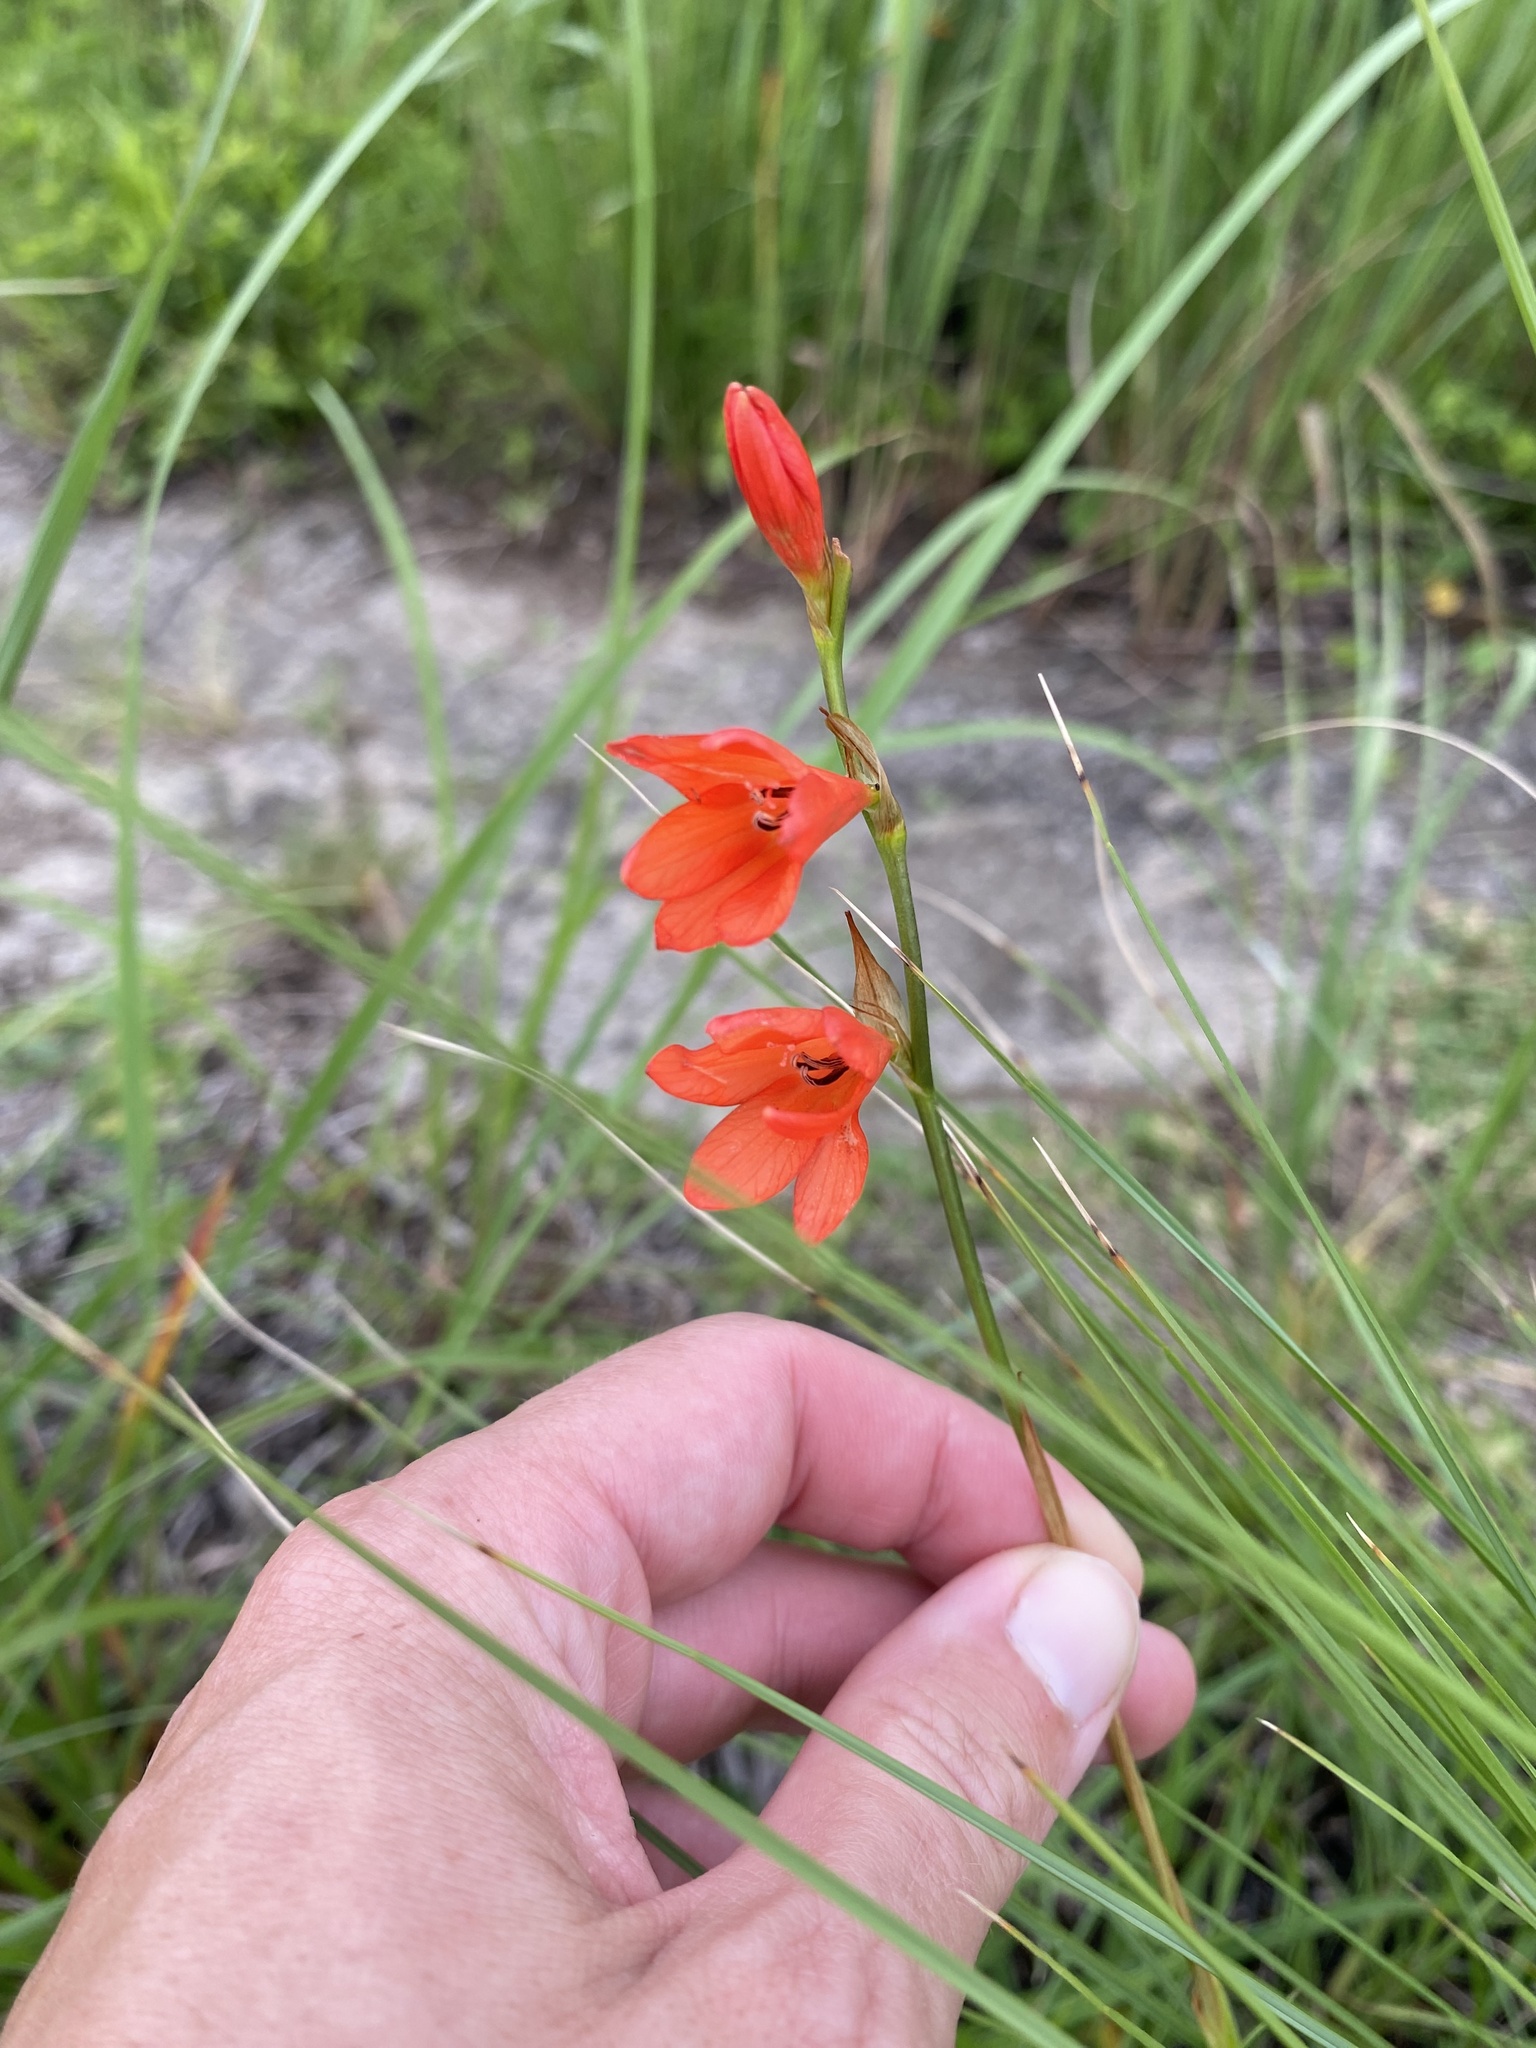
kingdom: Plantae
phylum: Tracheophyta
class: Liliopsida
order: Asparagales
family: Iridaceae
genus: Tritonia
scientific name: Tritonia disticha
